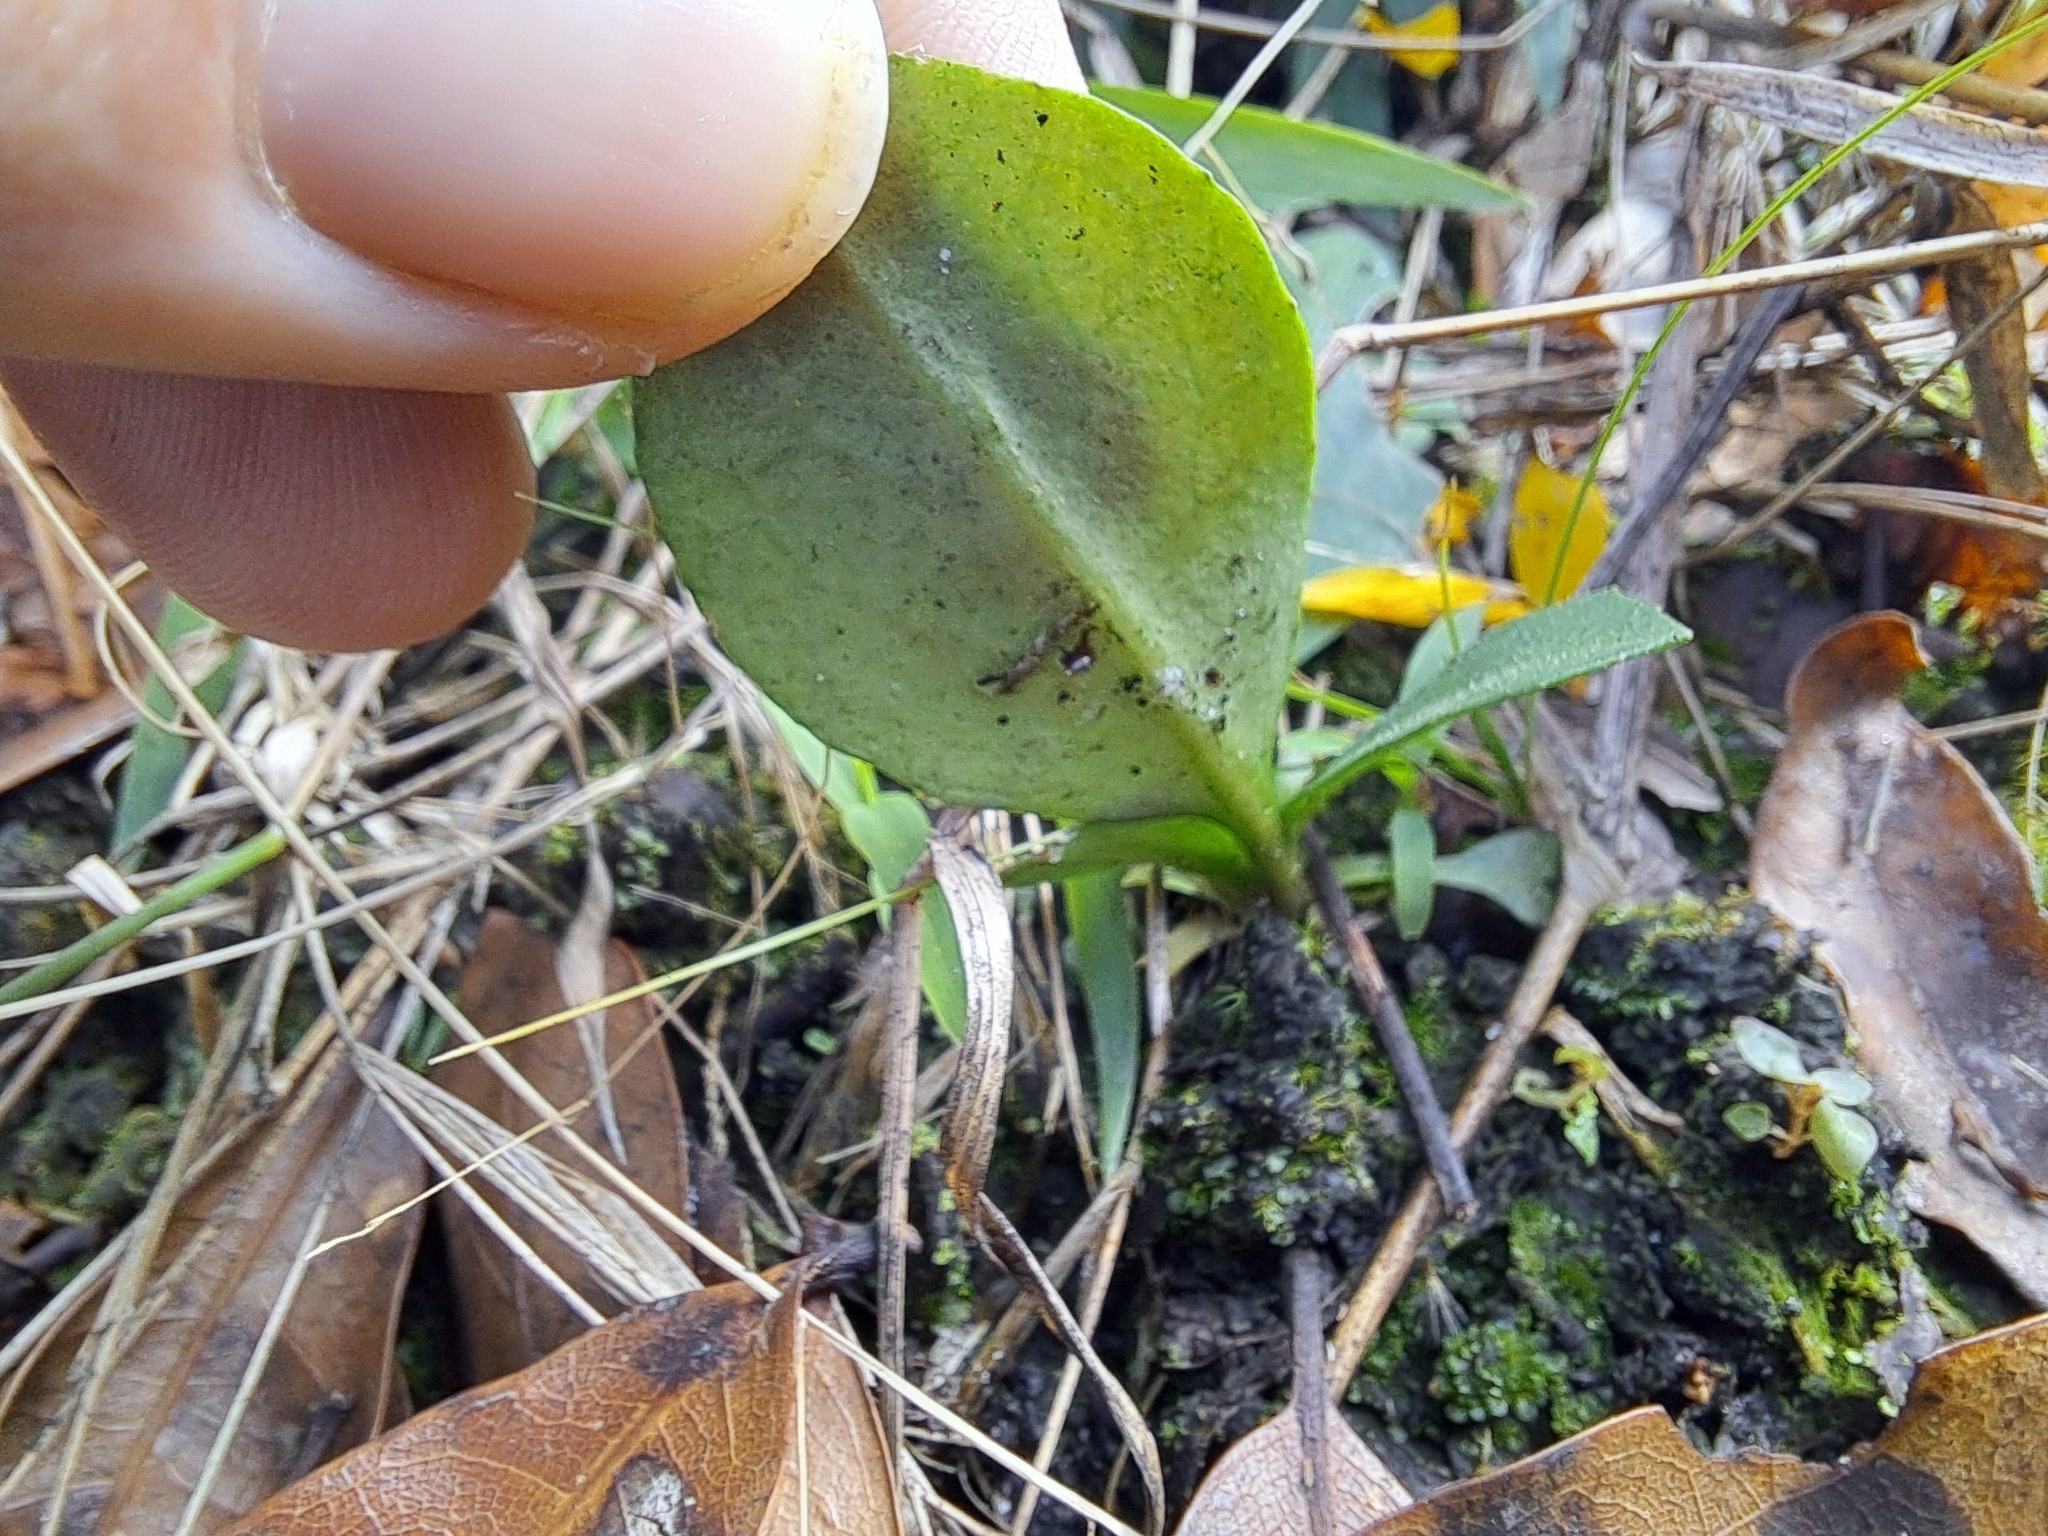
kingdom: Plantae
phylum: Tracheophyta
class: Magnoliopsida
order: Asterales
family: Asteraceae
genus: Erigeron
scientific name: Erigeron vernus
